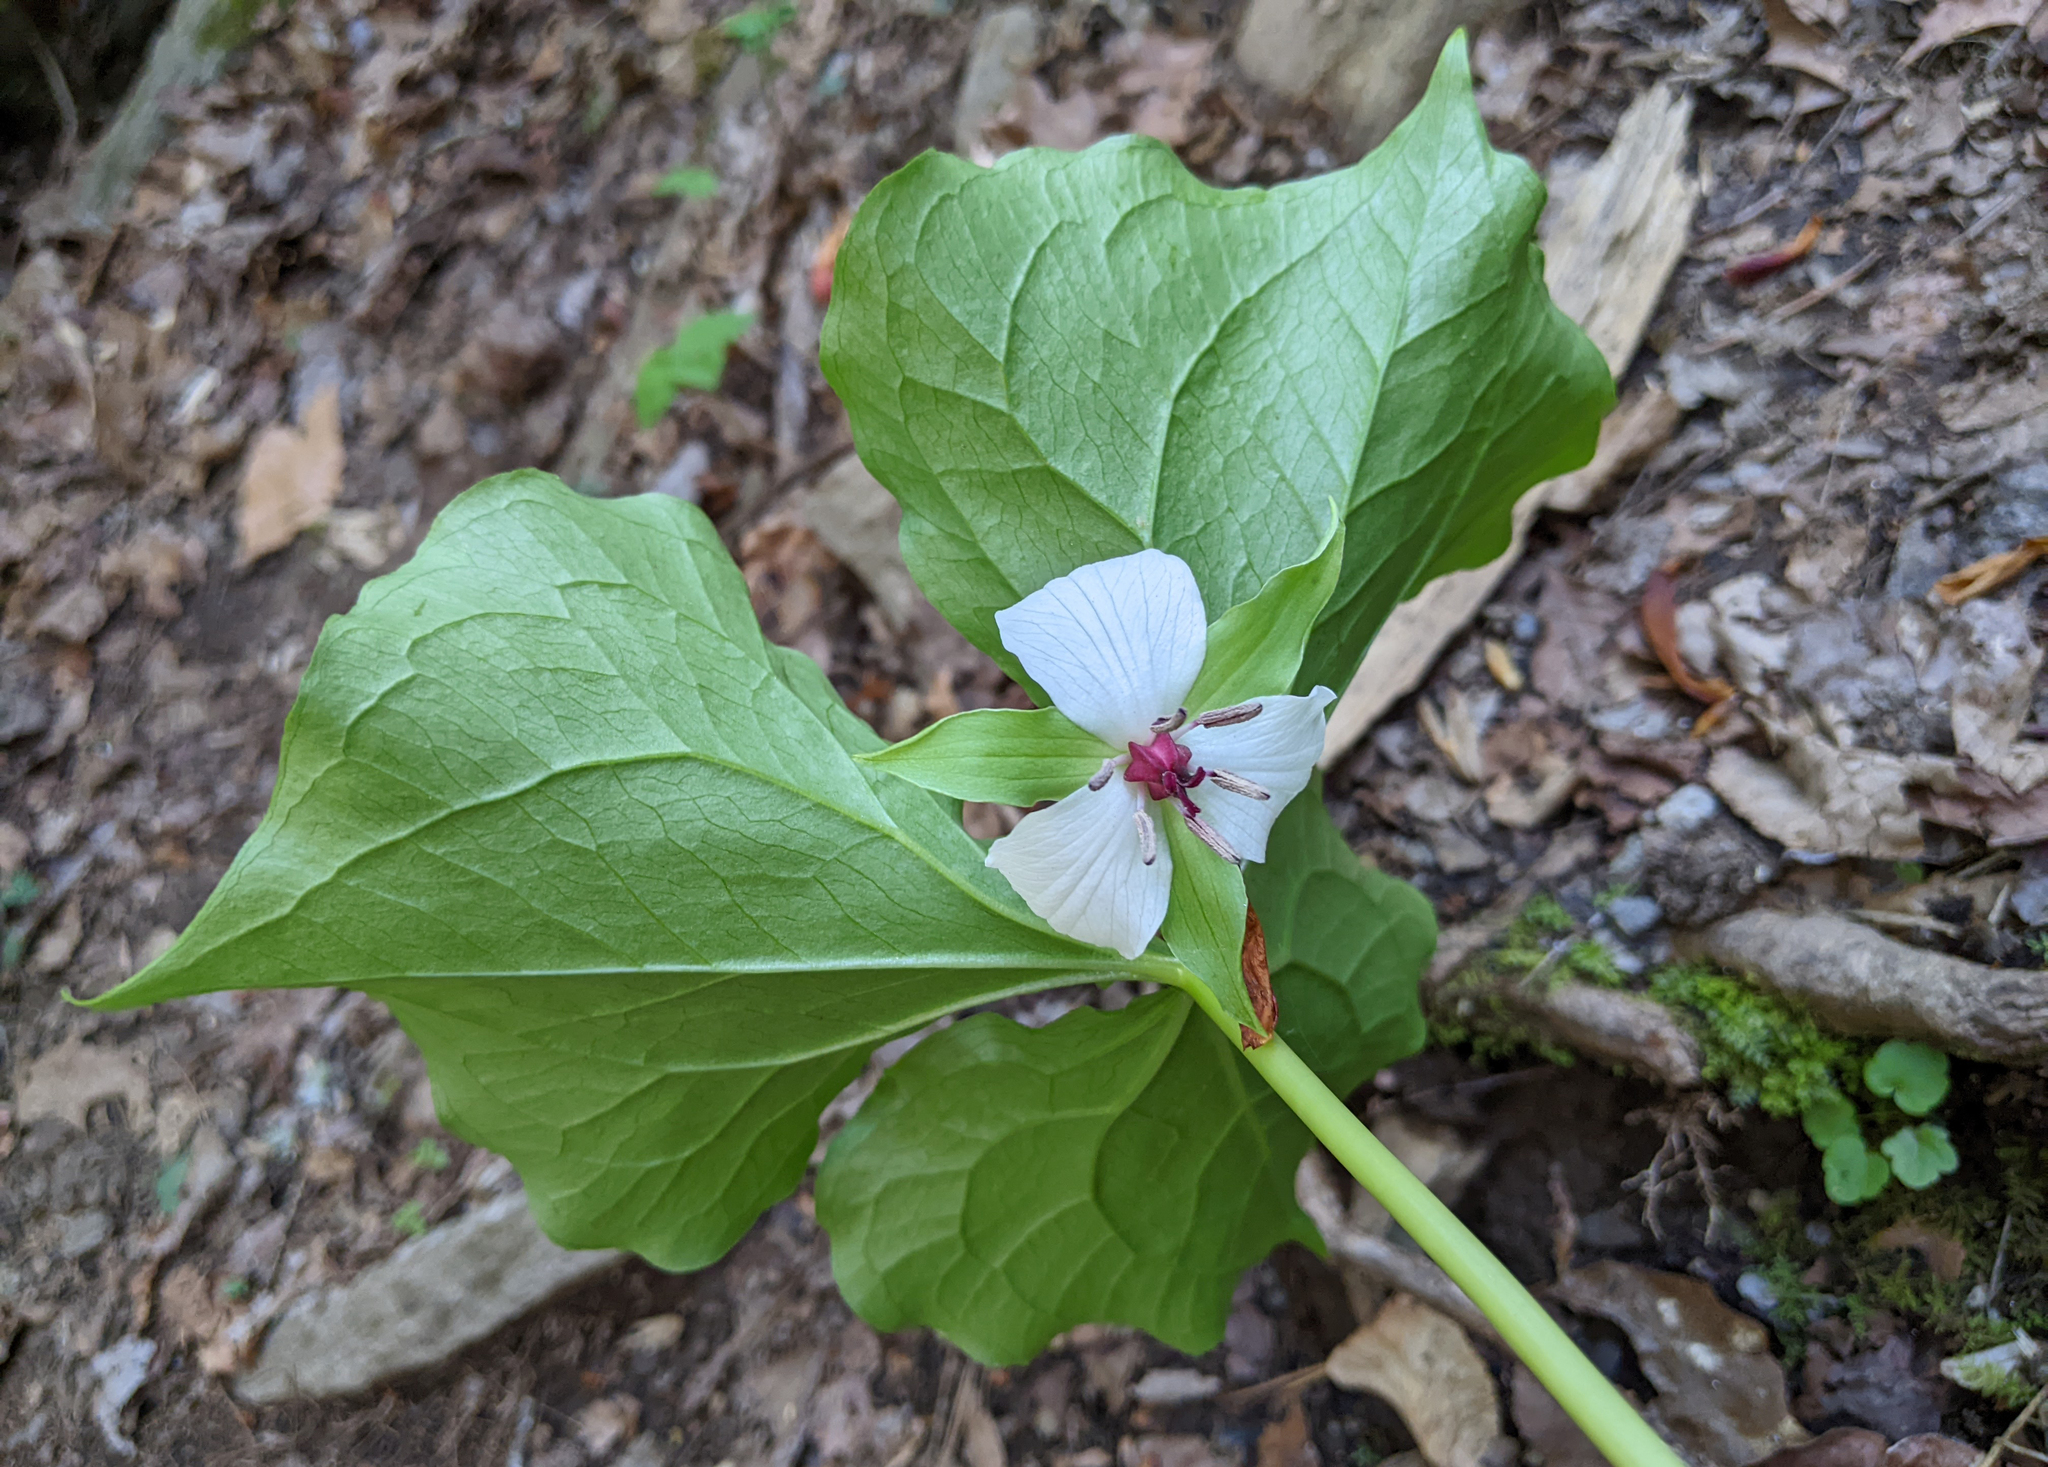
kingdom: Plantae
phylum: Tracheophyta
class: Liliopsida
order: Liliales
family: Melanthiaceae
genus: Trillium
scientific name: Trillium rugelii
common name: Ill-scented trillium
